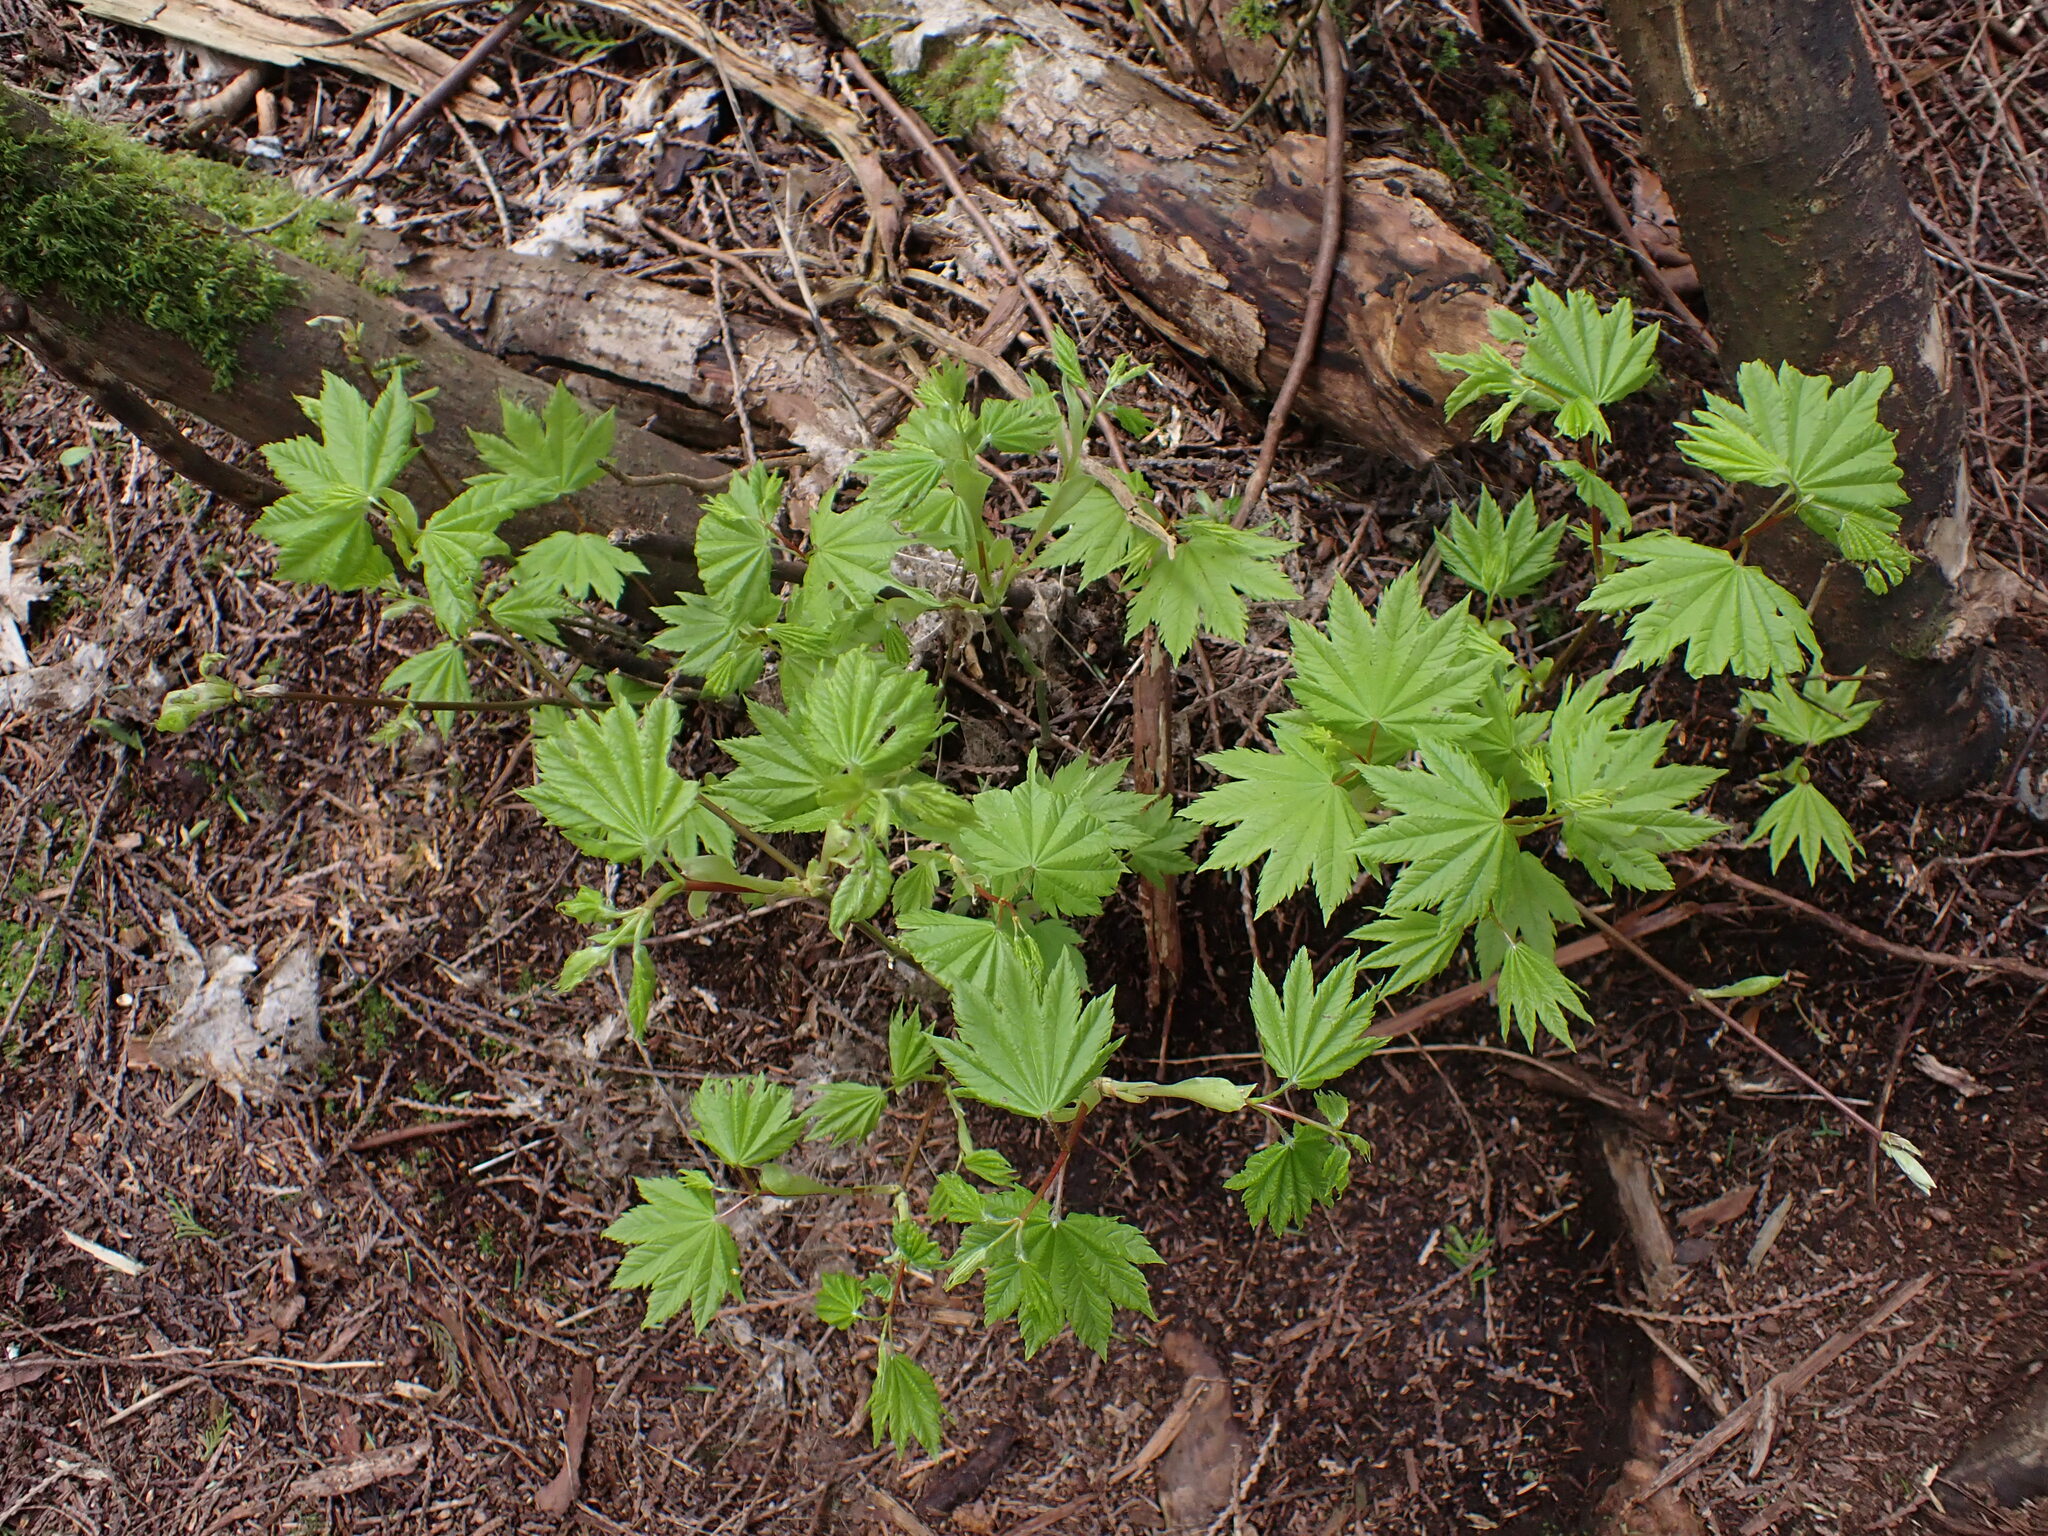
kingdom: Plantae
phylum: Tracheophyta
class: Magnoliopsida
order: Sapindales
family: Sapindaceae
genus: Acer
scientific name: Acer circinatum
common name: Vine maple
